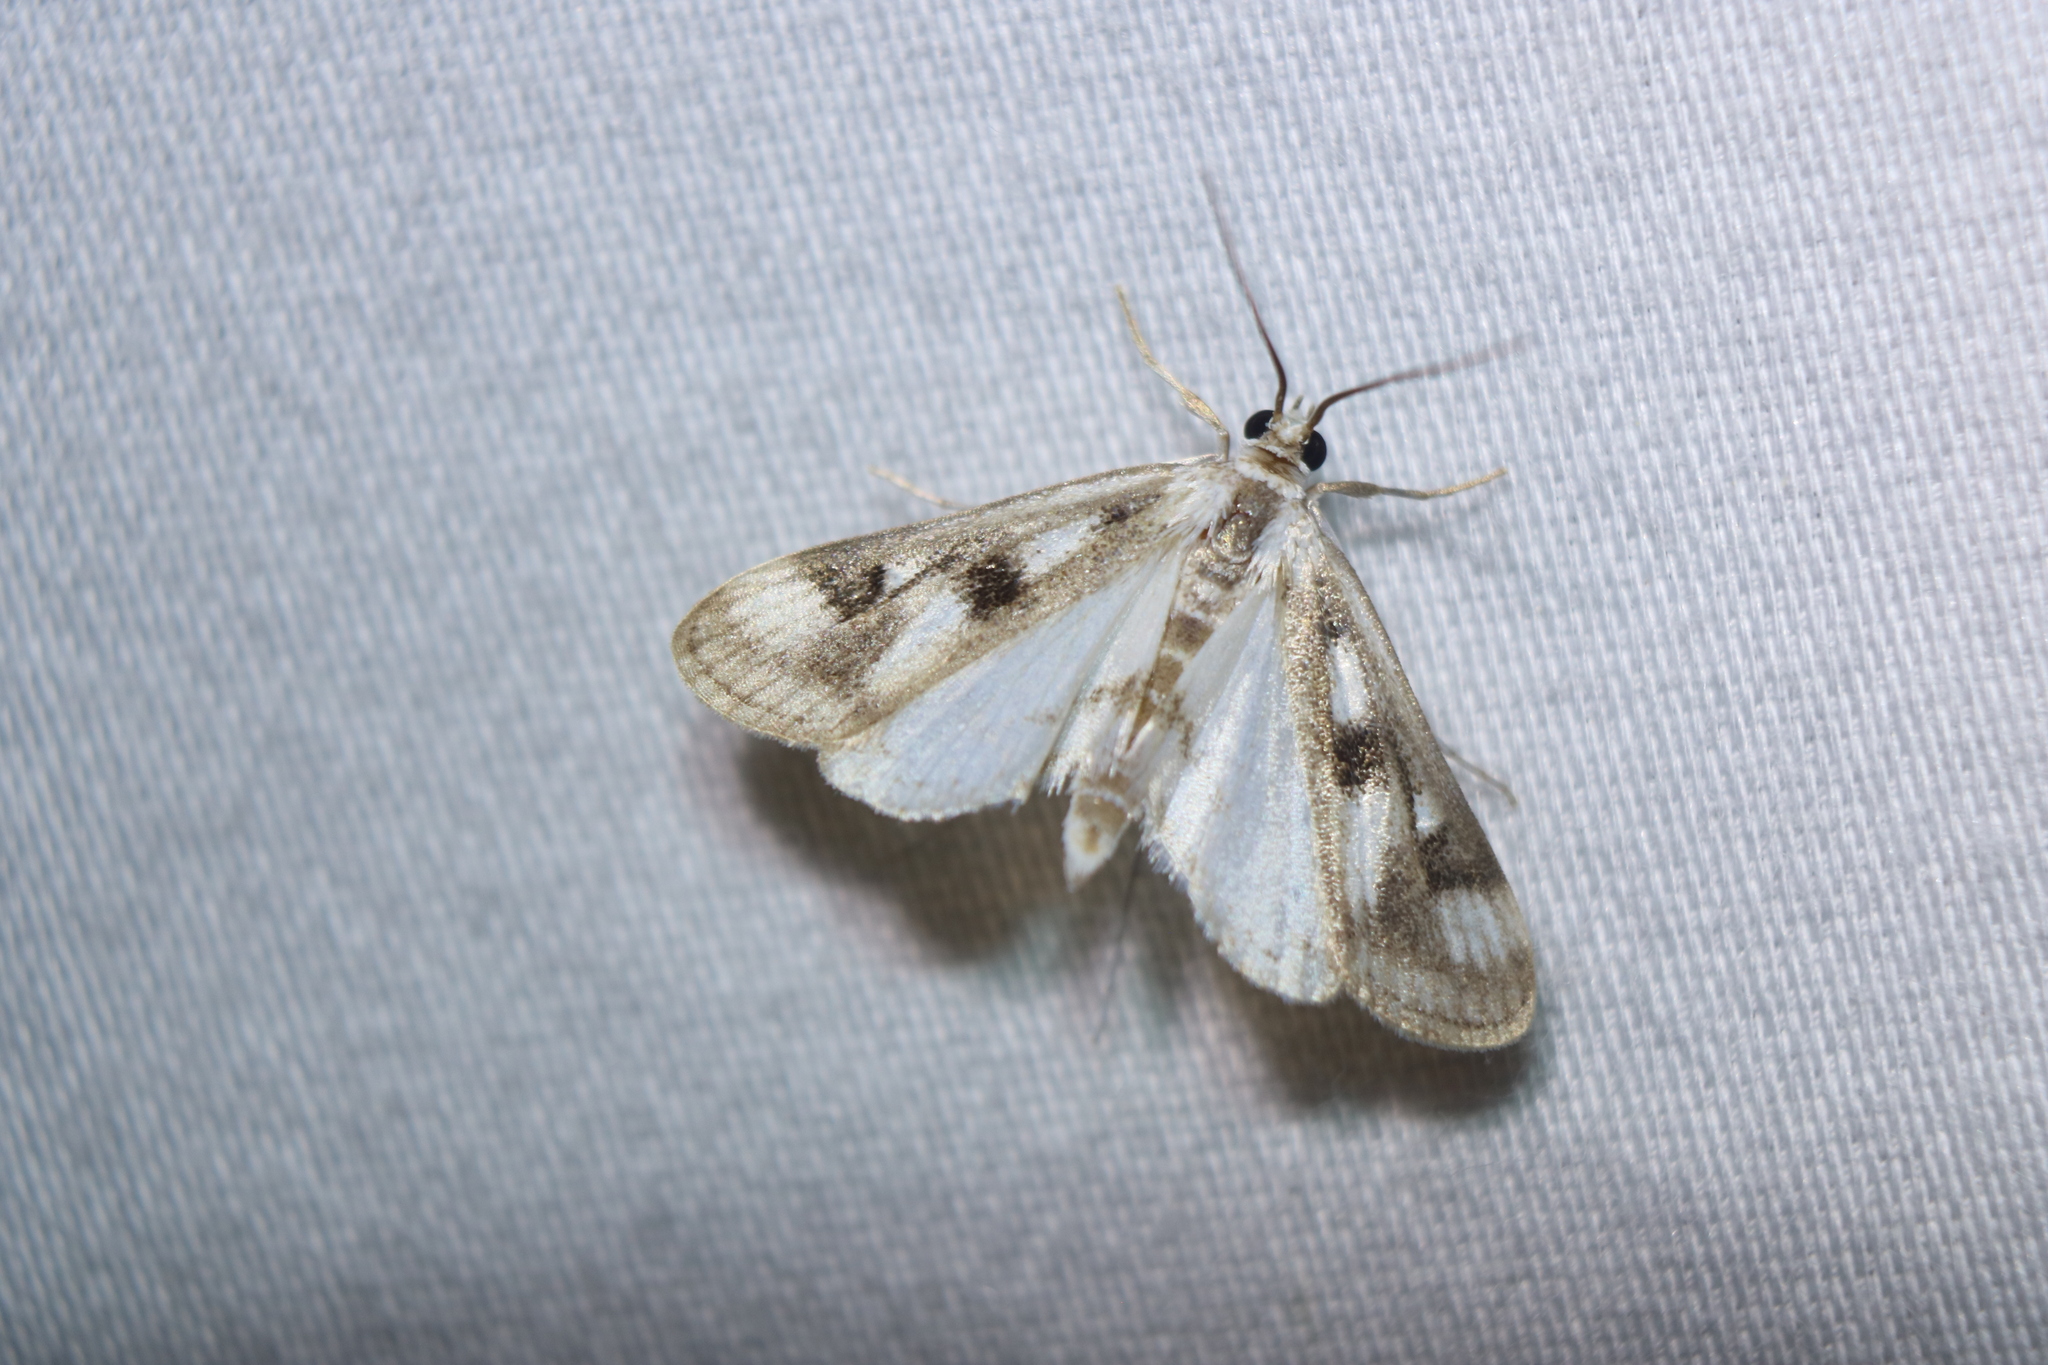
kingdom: Animalia
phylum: Arthropoda
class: Insecta
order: Lepidoptera
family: Crambidae
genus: Parapoynx
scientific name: Parapoynx maculalis
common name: Polymorphic pondweed moth
